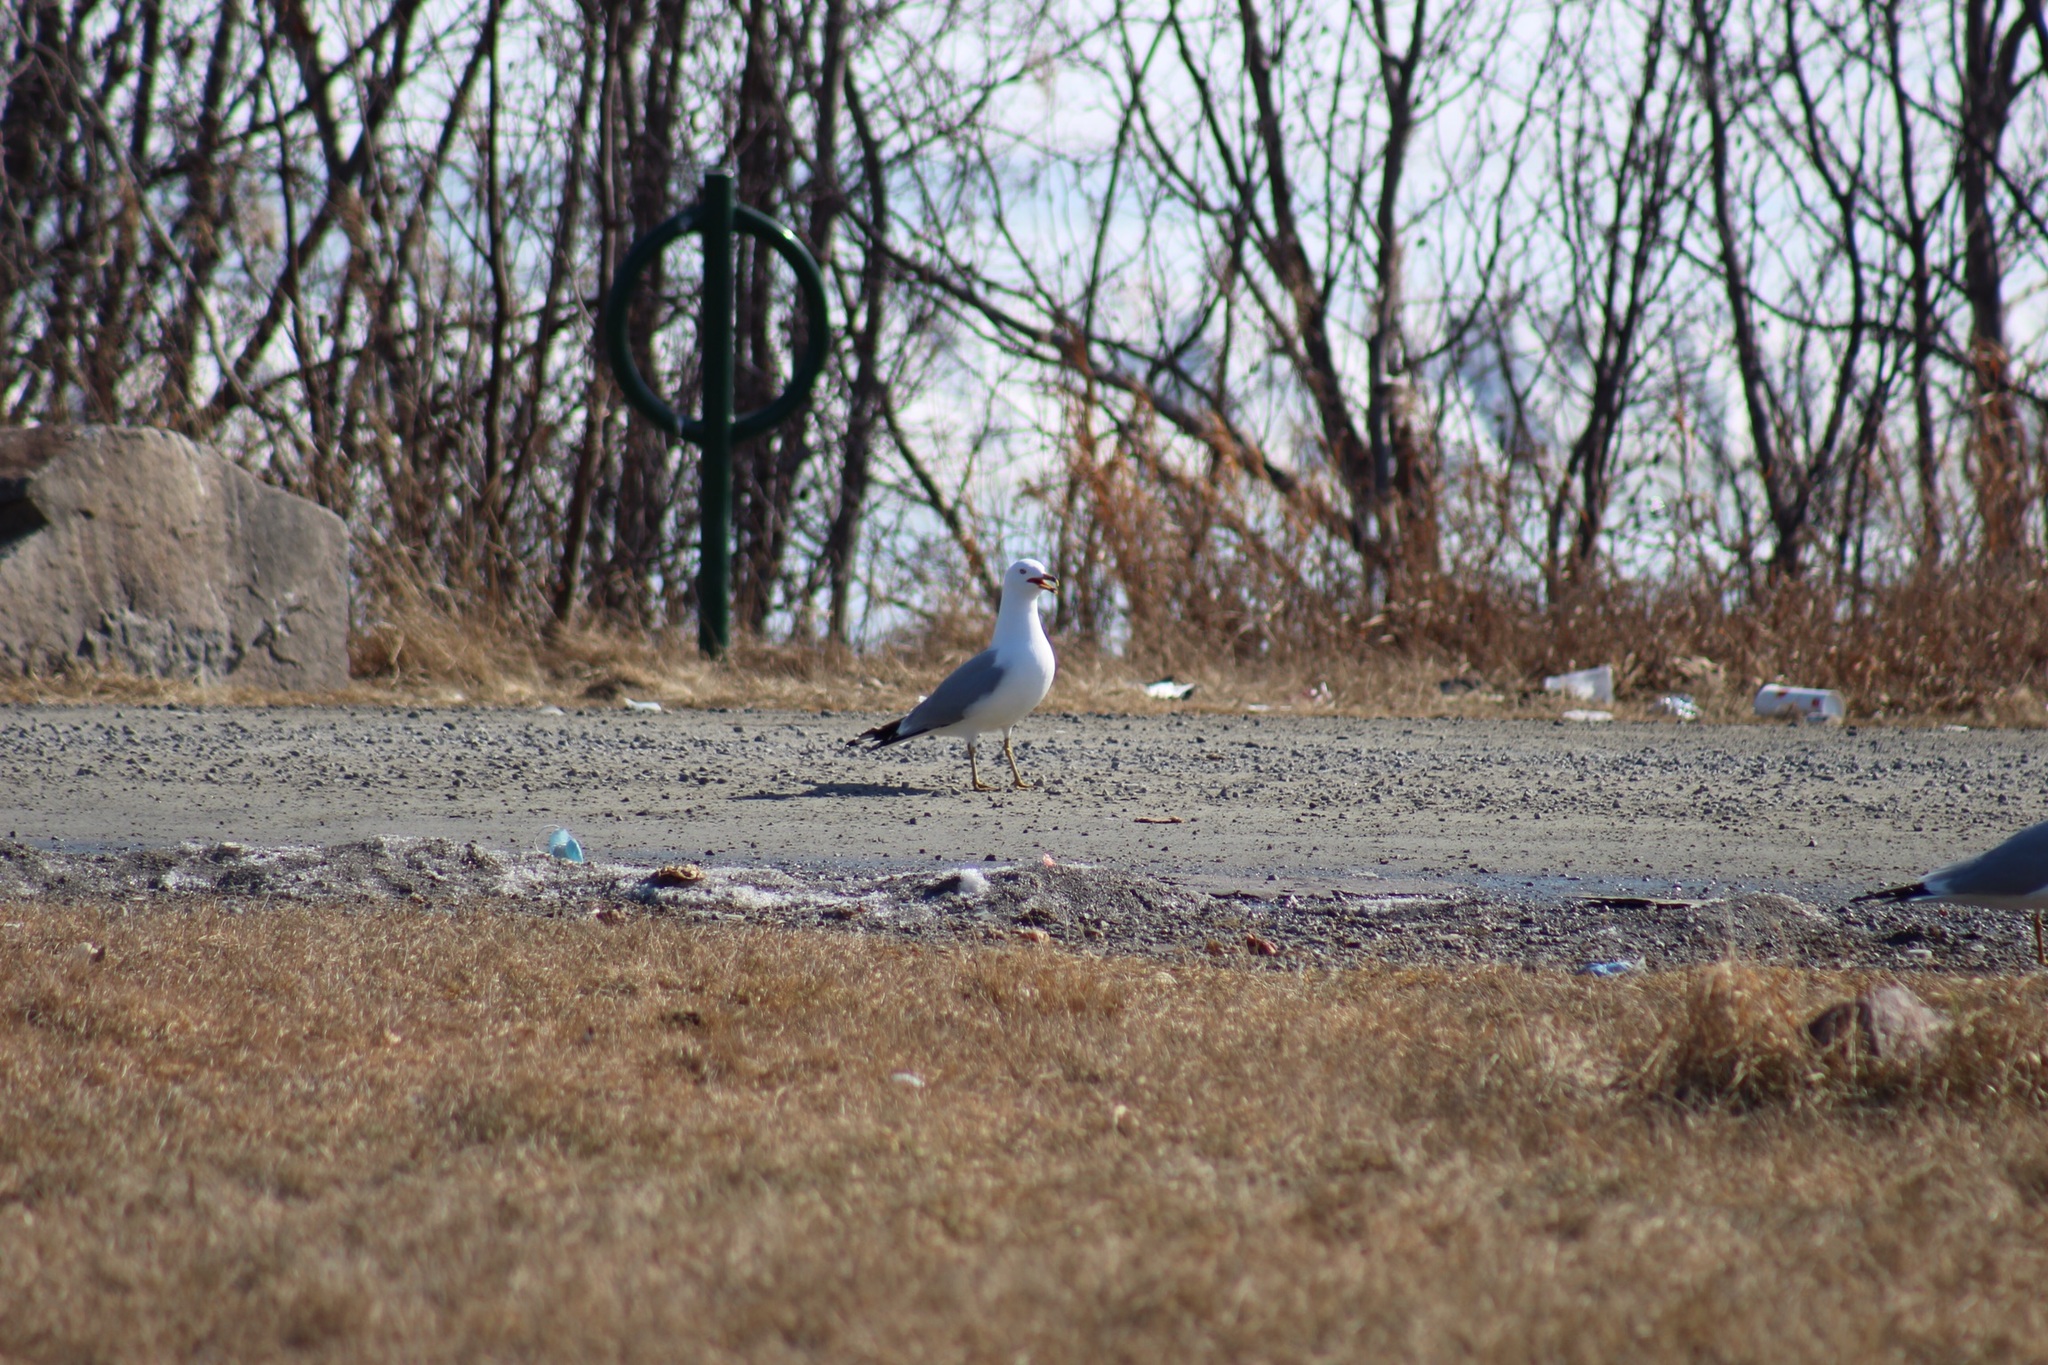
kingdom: Animalia
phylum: Chordata
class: Aves
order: Charadriiformes
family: Laridae
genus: Larus
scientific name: Larus delawarensis
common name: Ring-billed gull
